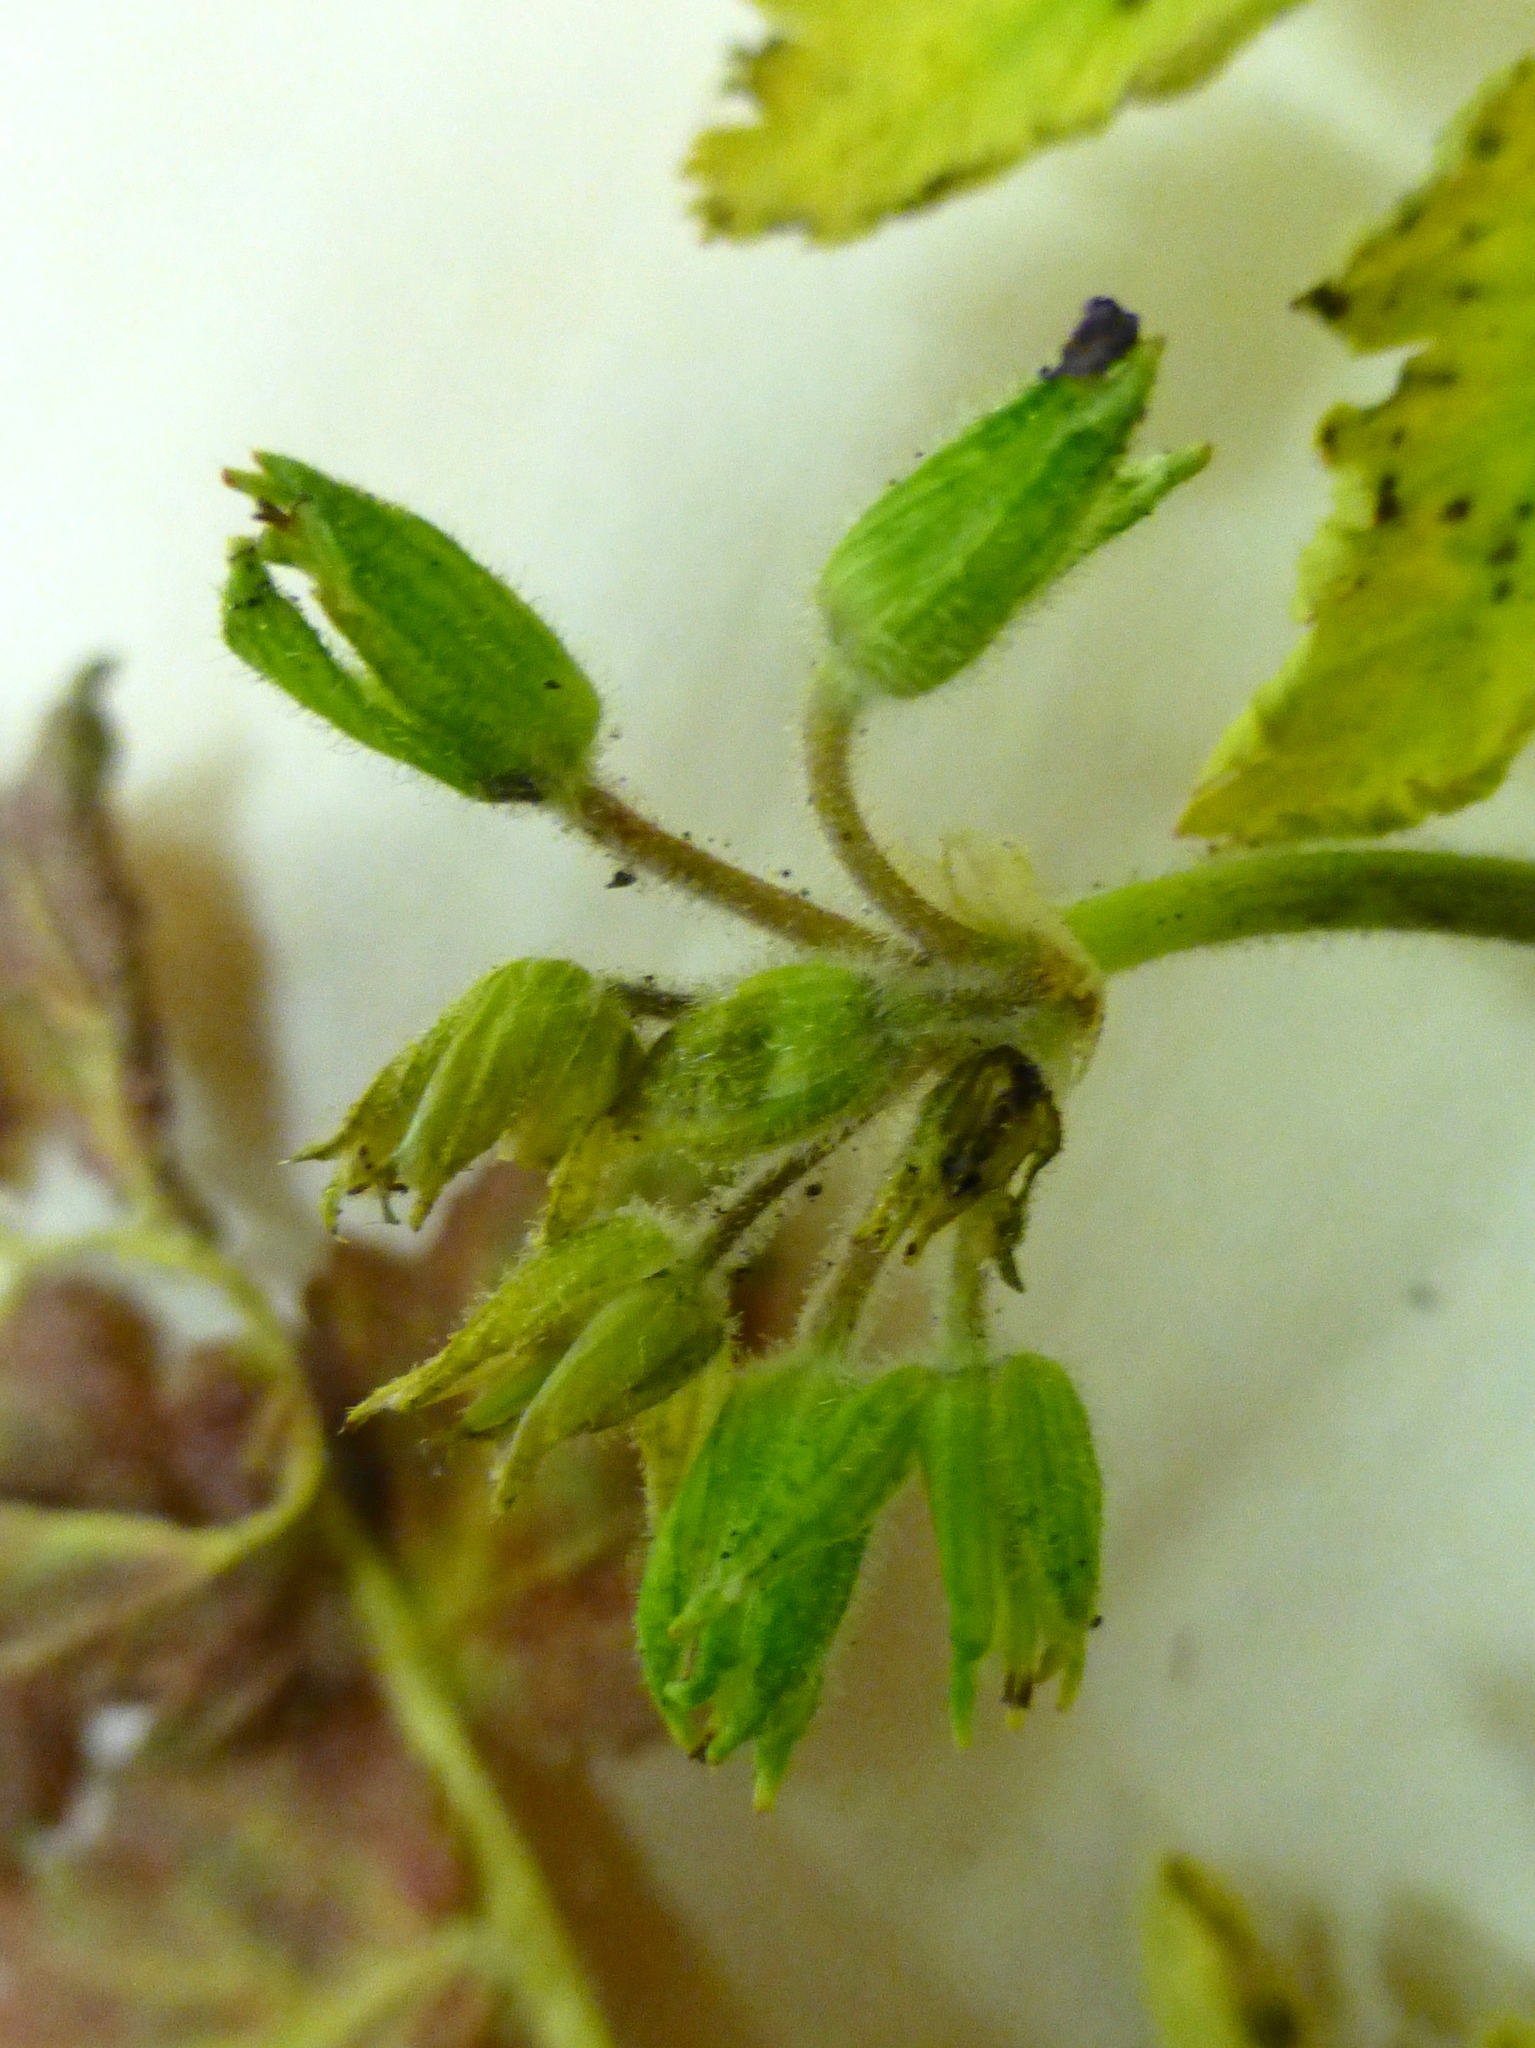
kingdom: Plantae
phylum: Tracheophyta
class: Magnoliopsida
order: Geraniales
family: Geraniaceae
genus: Erodium
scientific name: Erodium moschatum
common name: Musk stork's-bill
